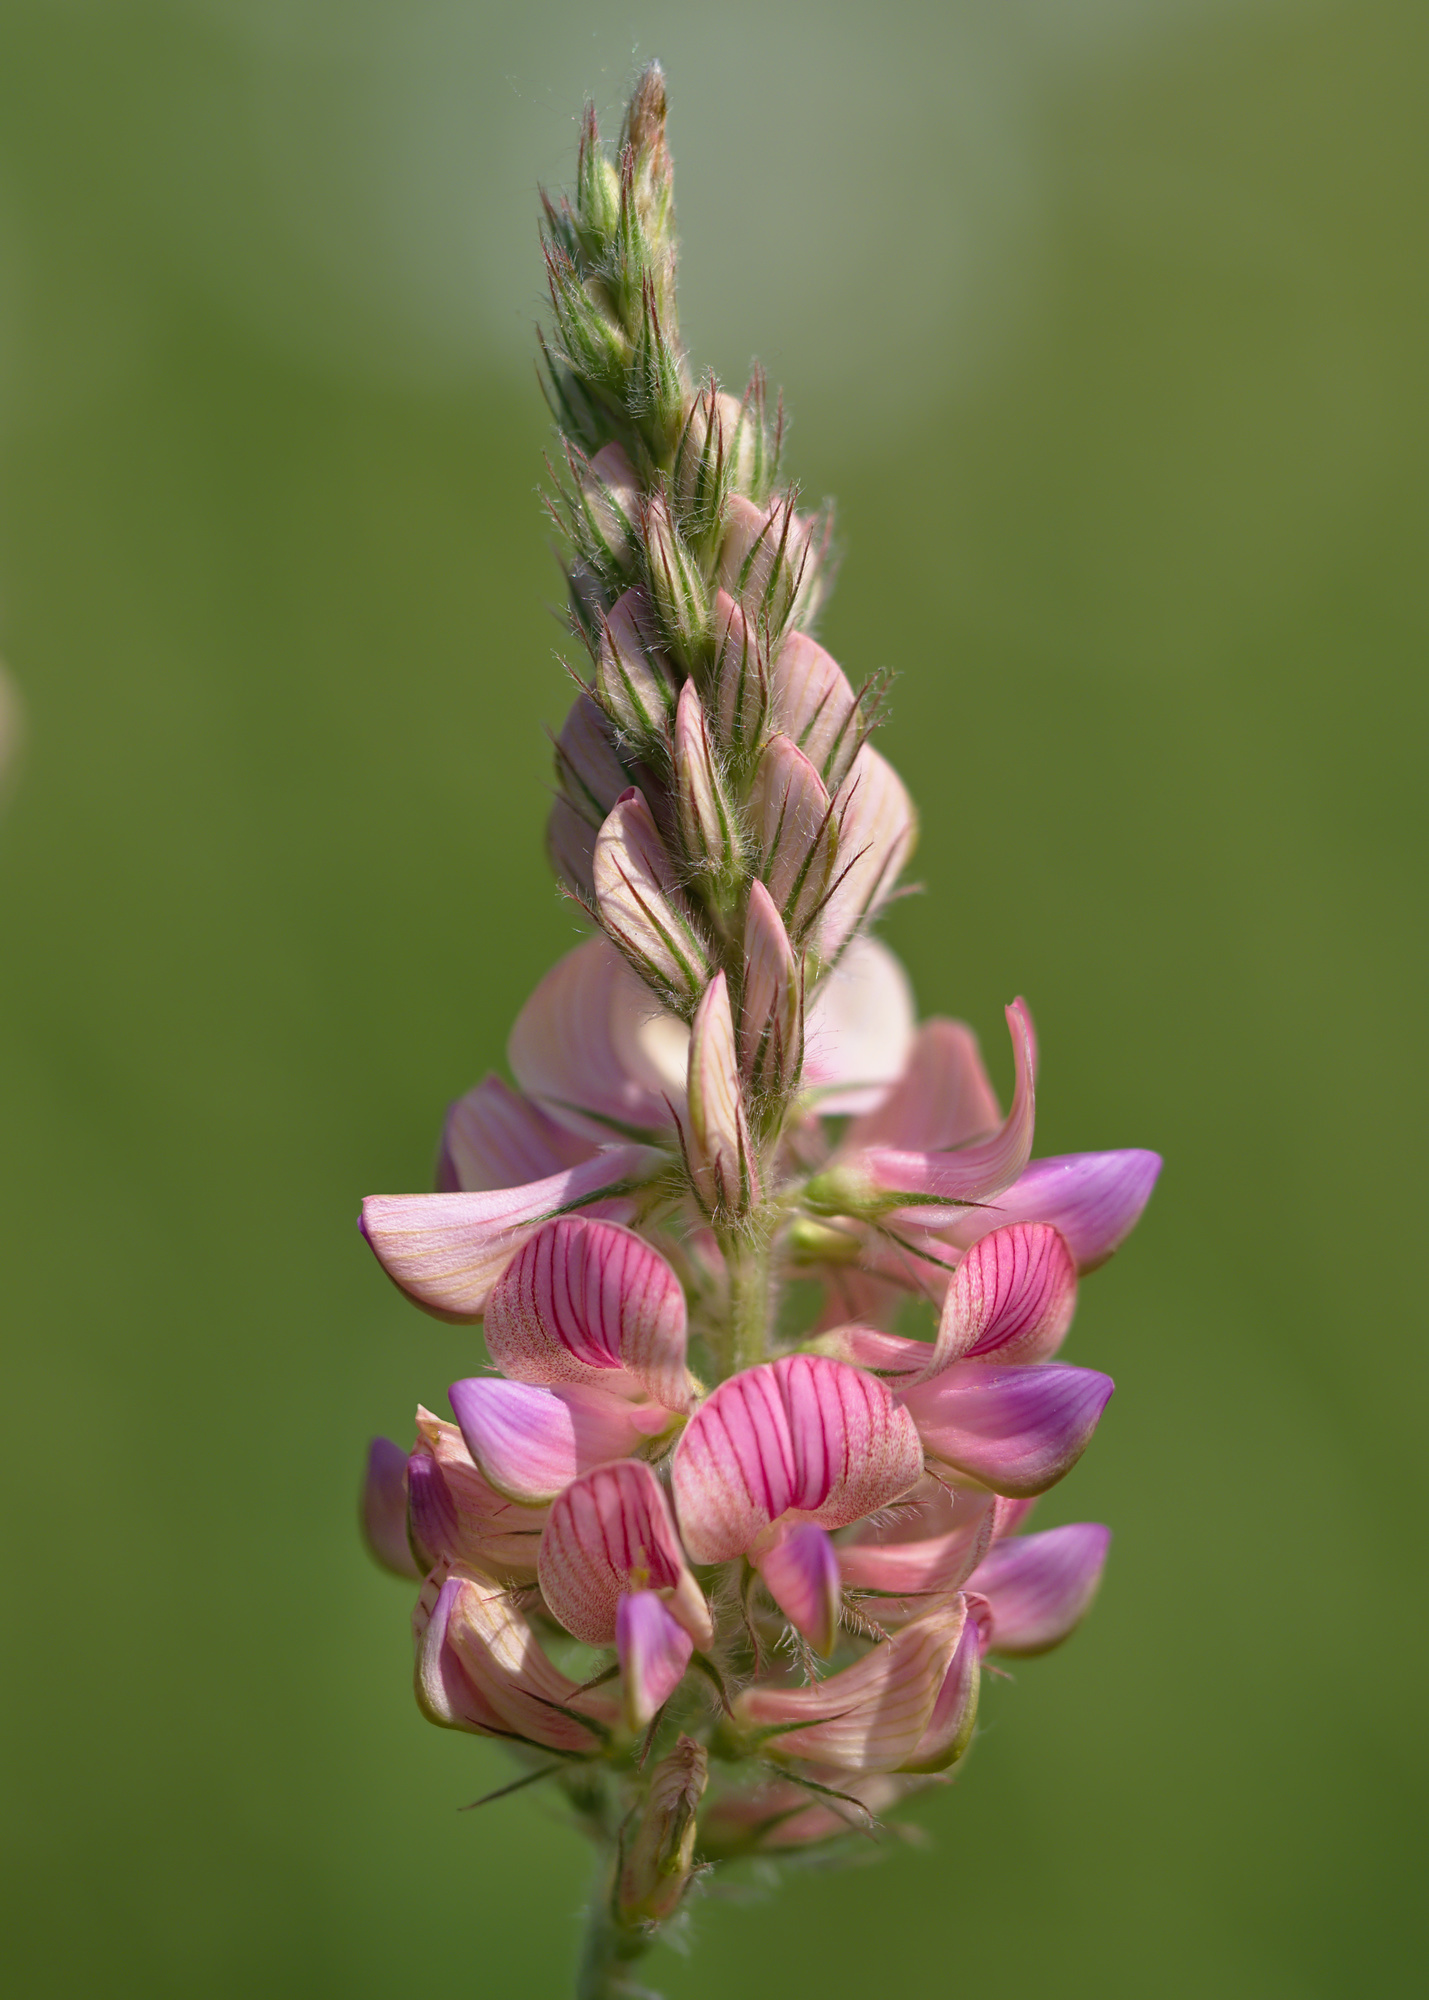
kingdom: Plantae
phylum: Tracheophyta
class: Magnoliopsida
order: Fabales
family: Fabaceae
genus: Onobrychis
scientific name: Onobrychis viciifolia
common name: Sainfoin
